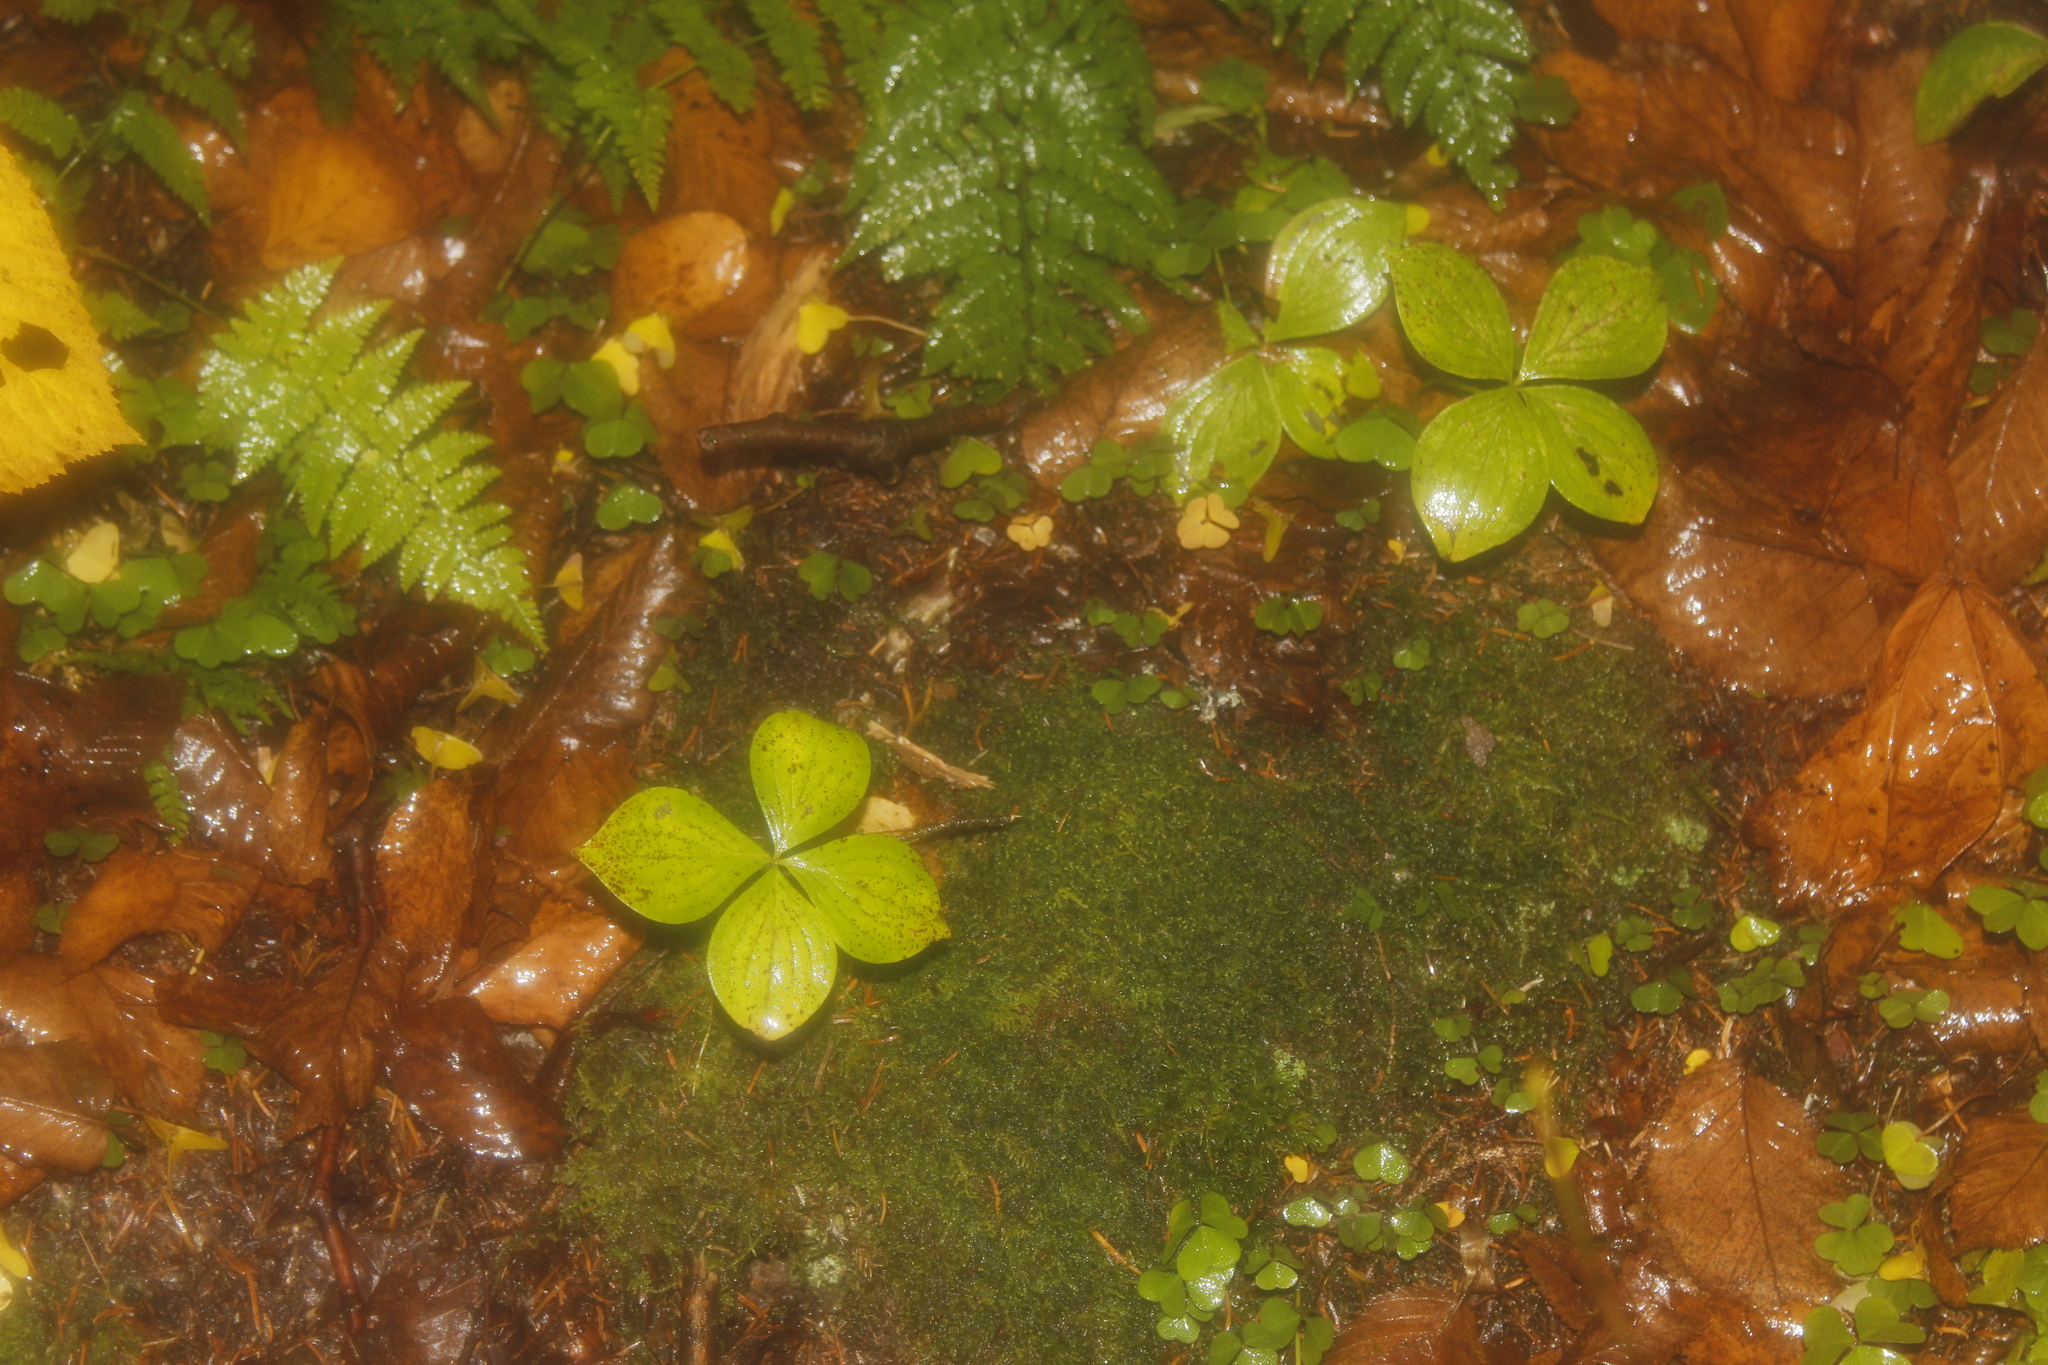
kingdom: Plantae
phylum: Tracheophyta
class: Magnoliopsida
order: Cornales
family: Cornaceae
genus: Cornus
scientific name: Cornus canadensis
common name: Creeping dogwood
